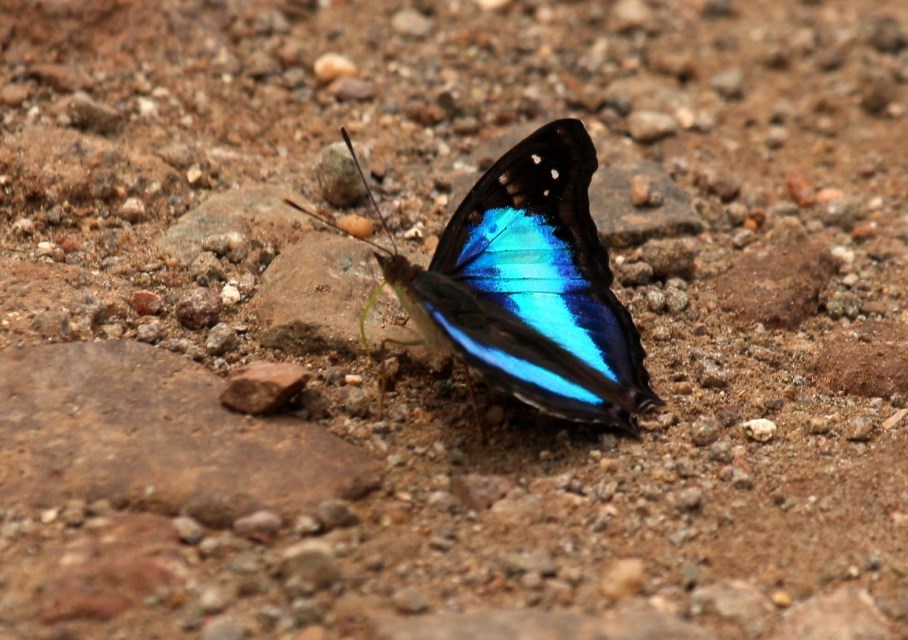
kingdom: Animalia
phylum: Arthropoda
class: Insecta
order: Lepidoptera
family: Nymphalidae
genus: Doxocopa
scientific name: Doxocopa laurentia
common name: Turquoise emperor
